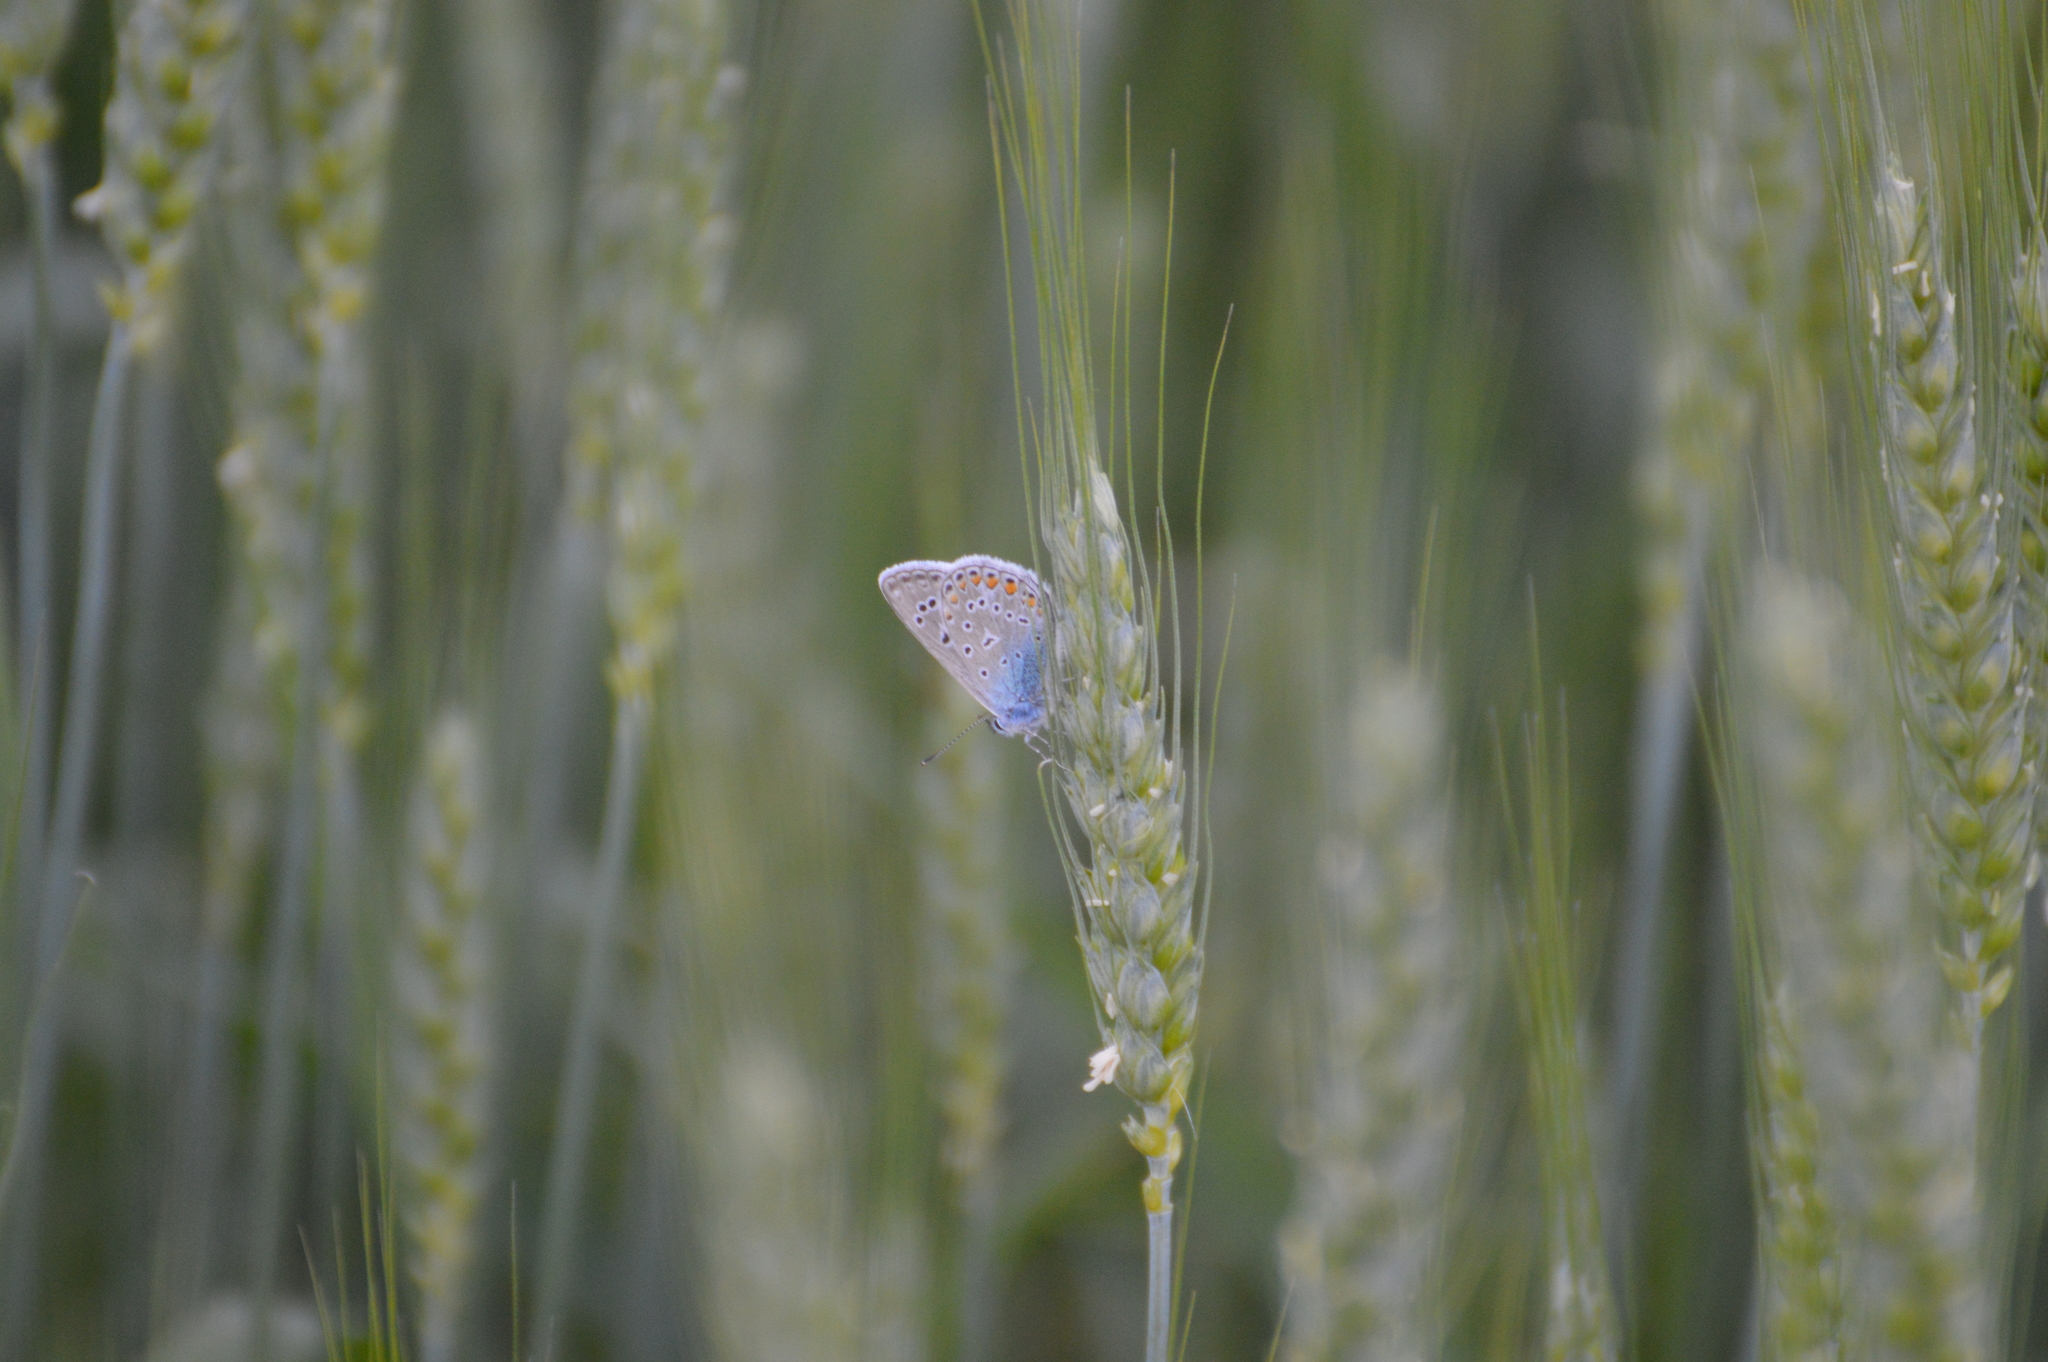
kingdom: Animalia
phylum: Arthropoda
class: Insecta
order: Lepidoptera
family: Lycaenidae
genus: Polyommatus
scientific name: Polyommatus icarus
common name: Common blue
